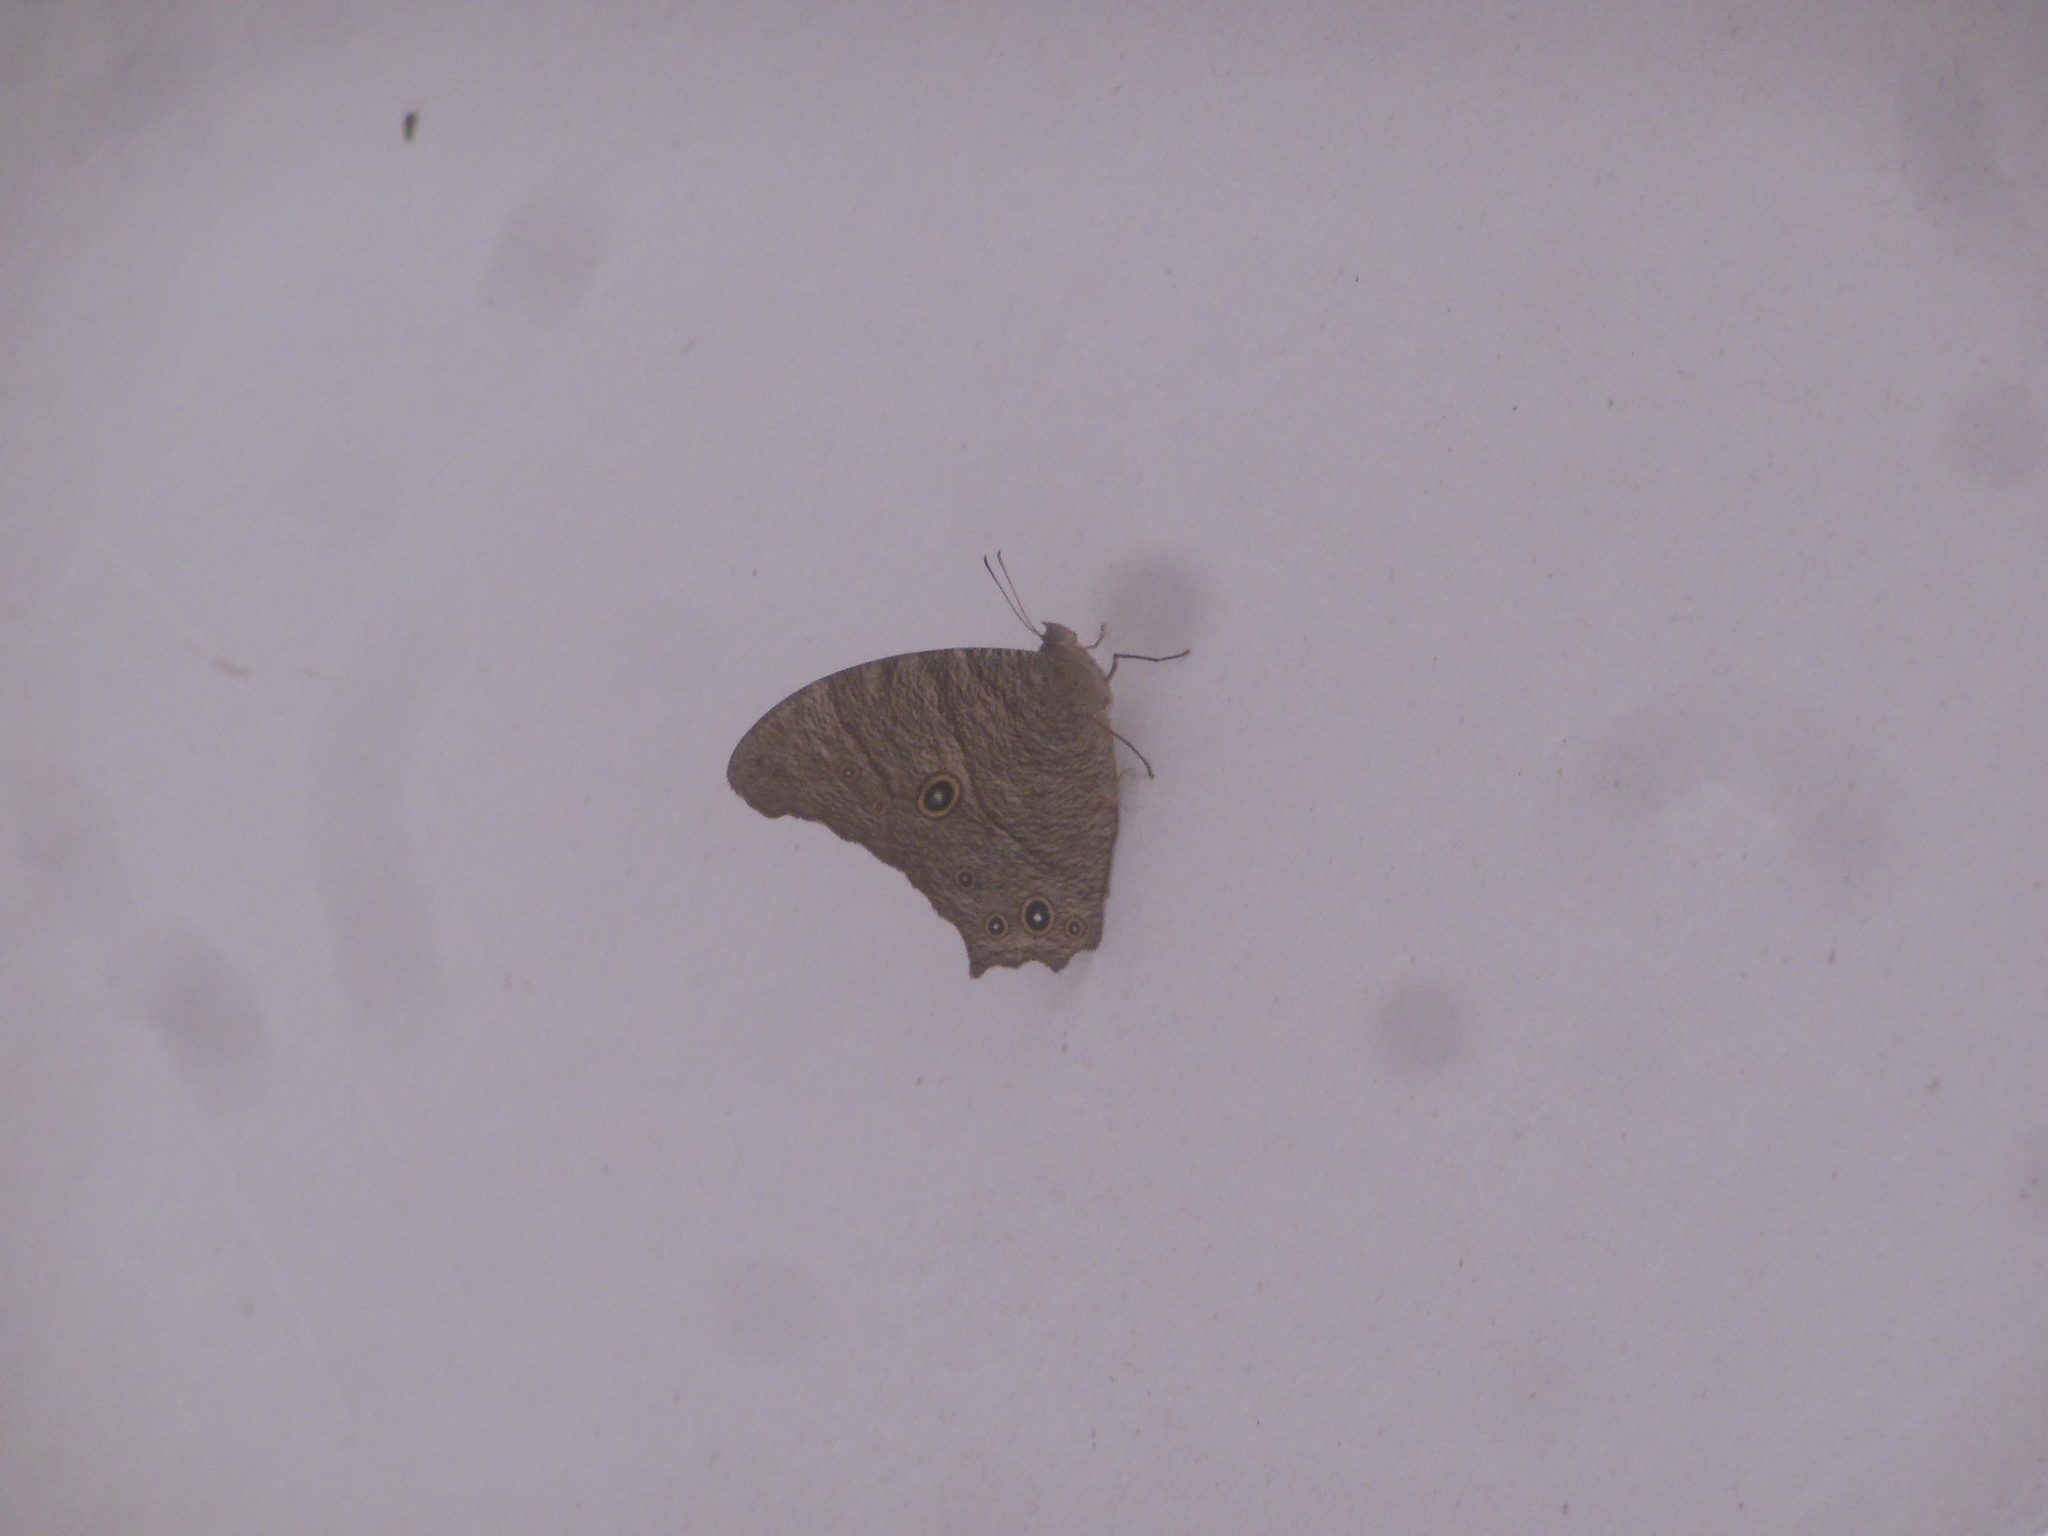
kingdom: Animalia
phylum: Arthropoda
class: Insecta
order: Lepidoptera
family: Nymphalidae
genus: Melanitis
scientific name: Melanitis leda
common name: Twilight brown
